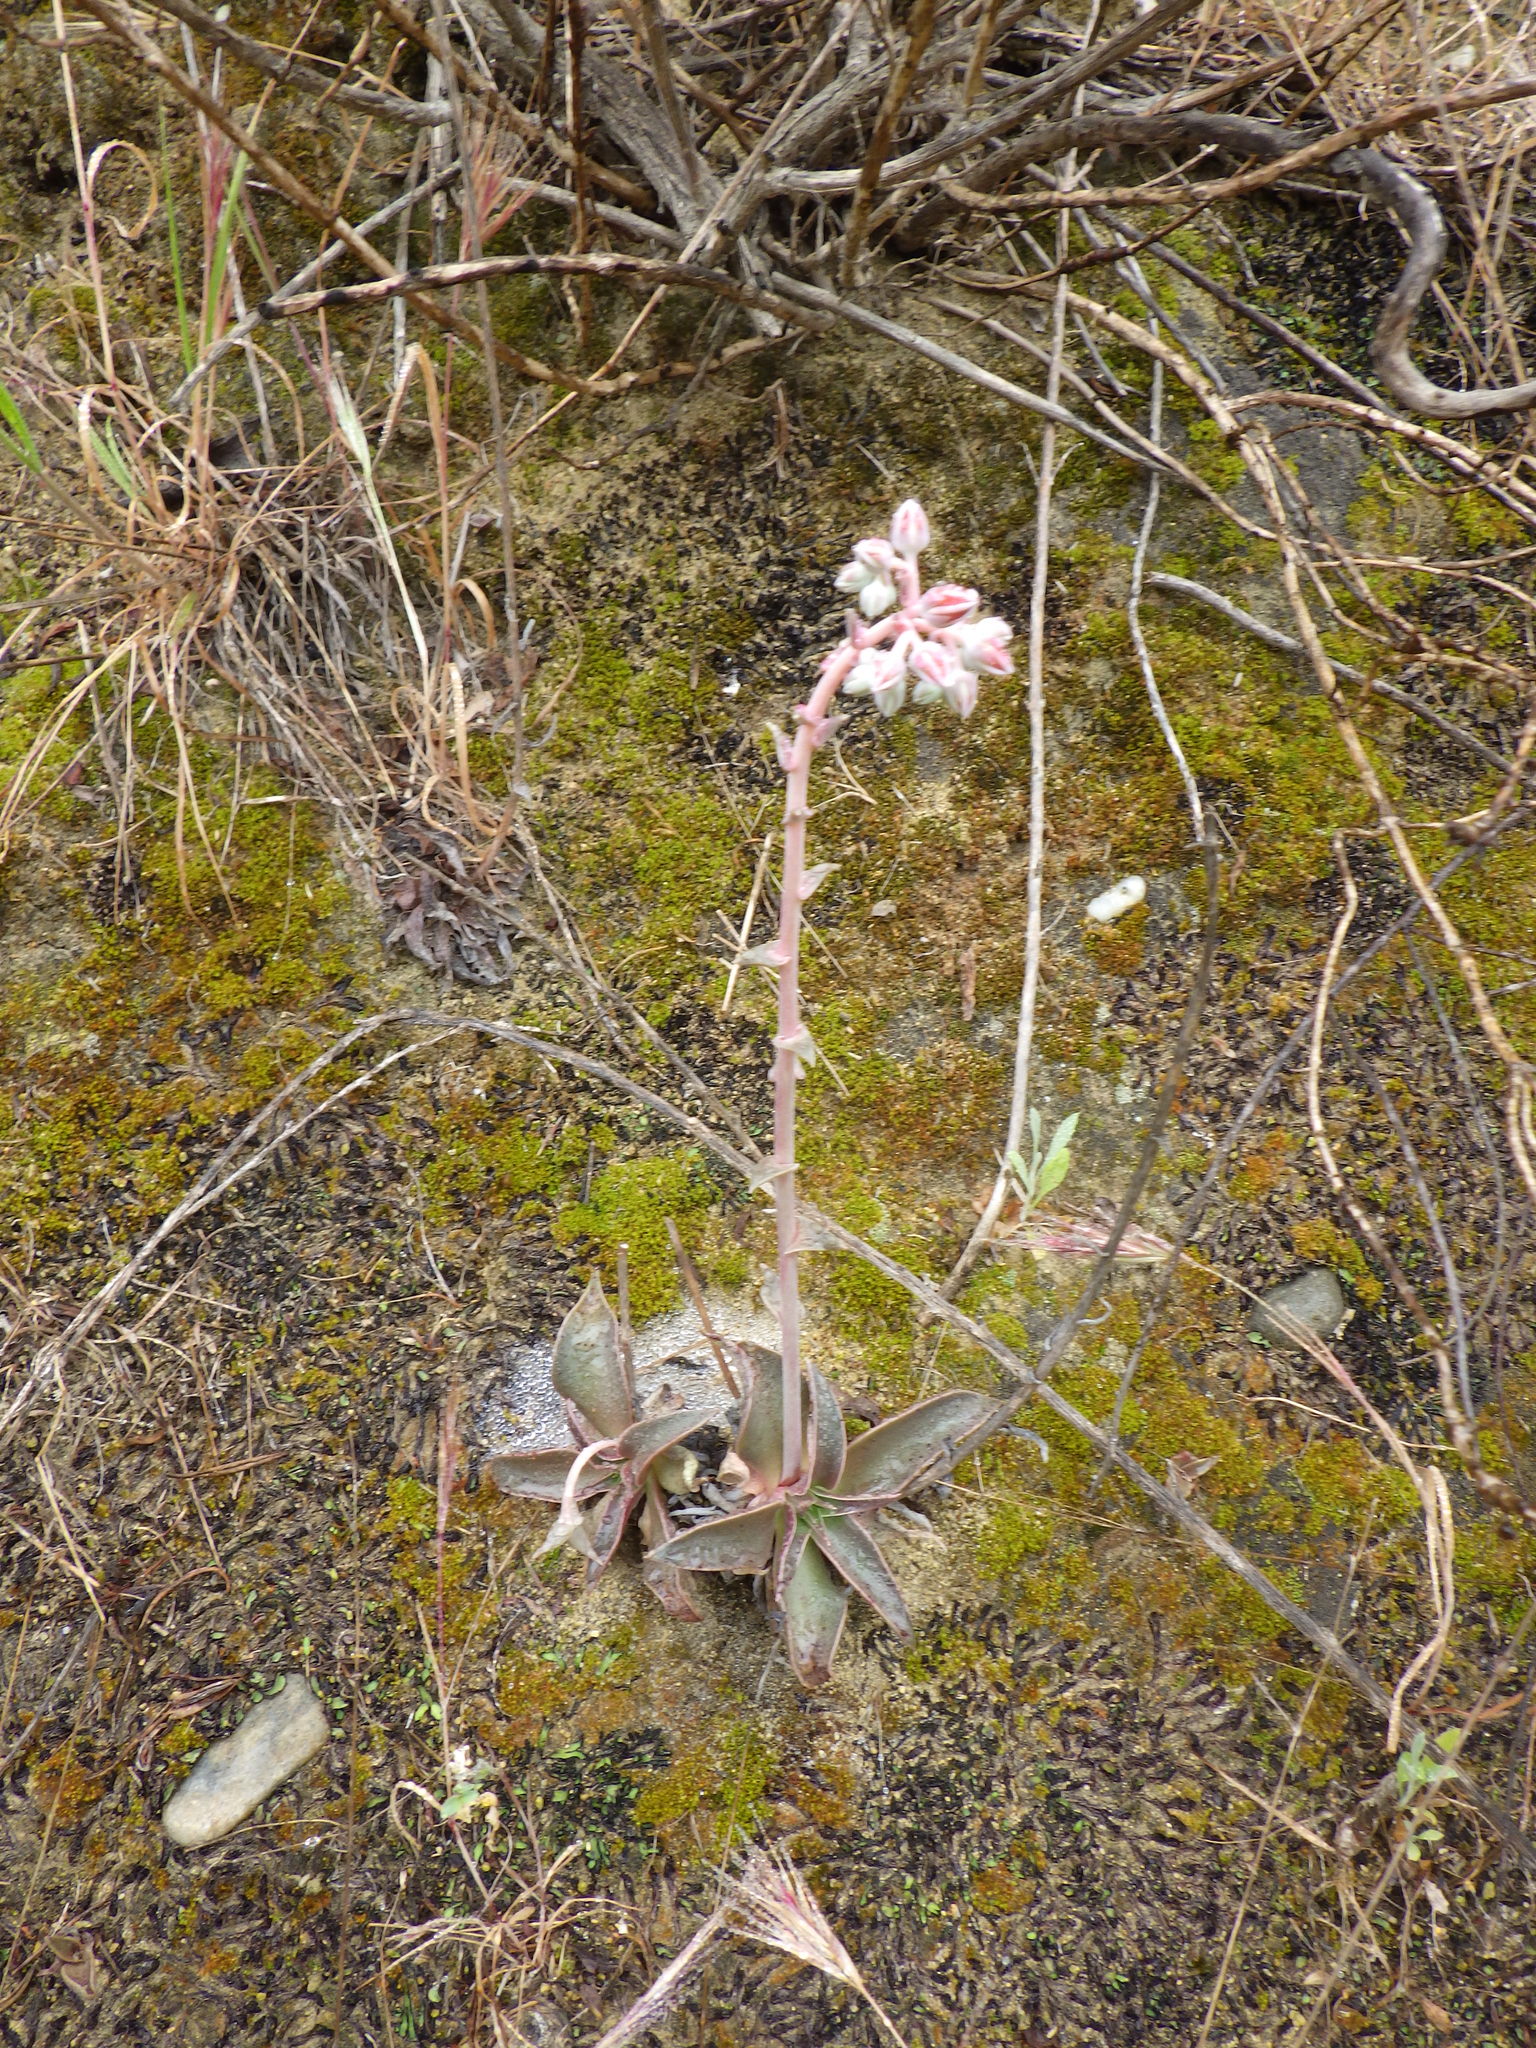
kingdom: Plantae
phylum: Tracheophyta
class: Magnoliopsida
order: Saxifragales
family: Crassulaceae
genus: Dudleya
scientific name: Dudleya lanceolata
